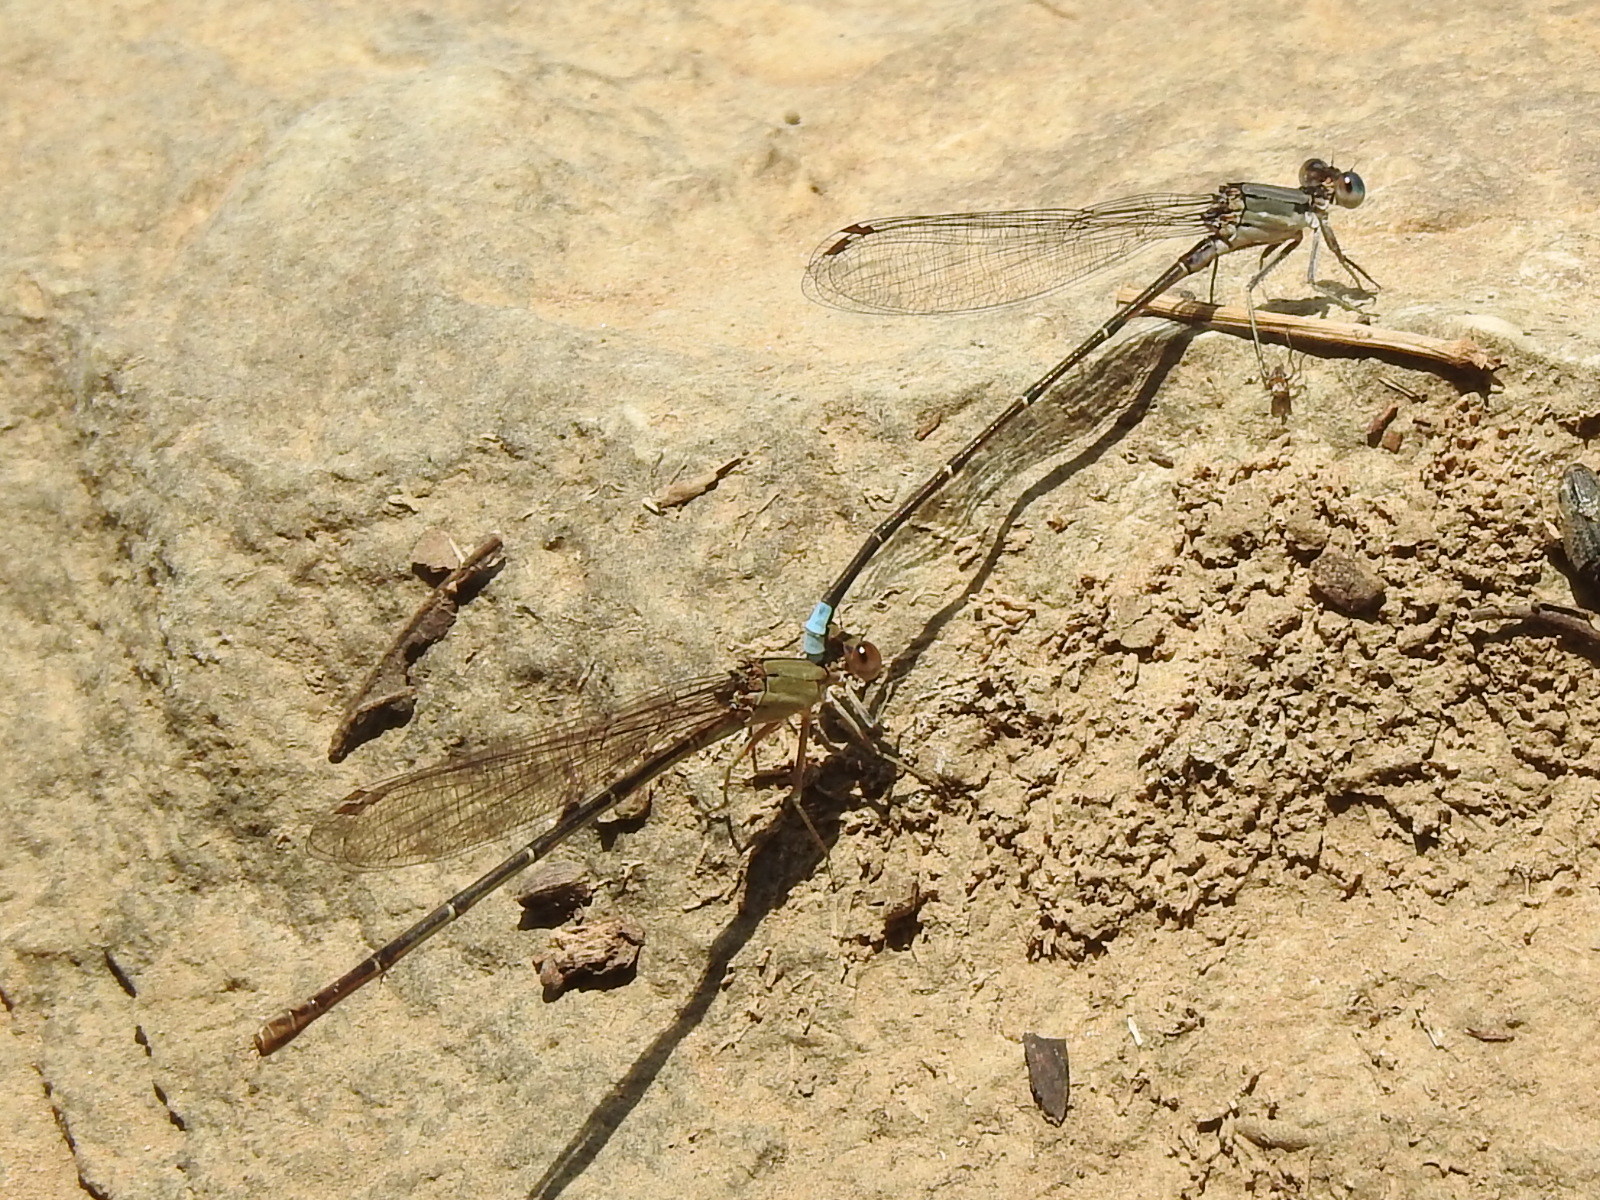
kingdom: Animalia
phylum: Arthropoda
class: Insecta
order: Odonata
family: Coenagrionidae
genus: Argia
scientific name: Argia apicalis
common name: Blue-fronted dancer
